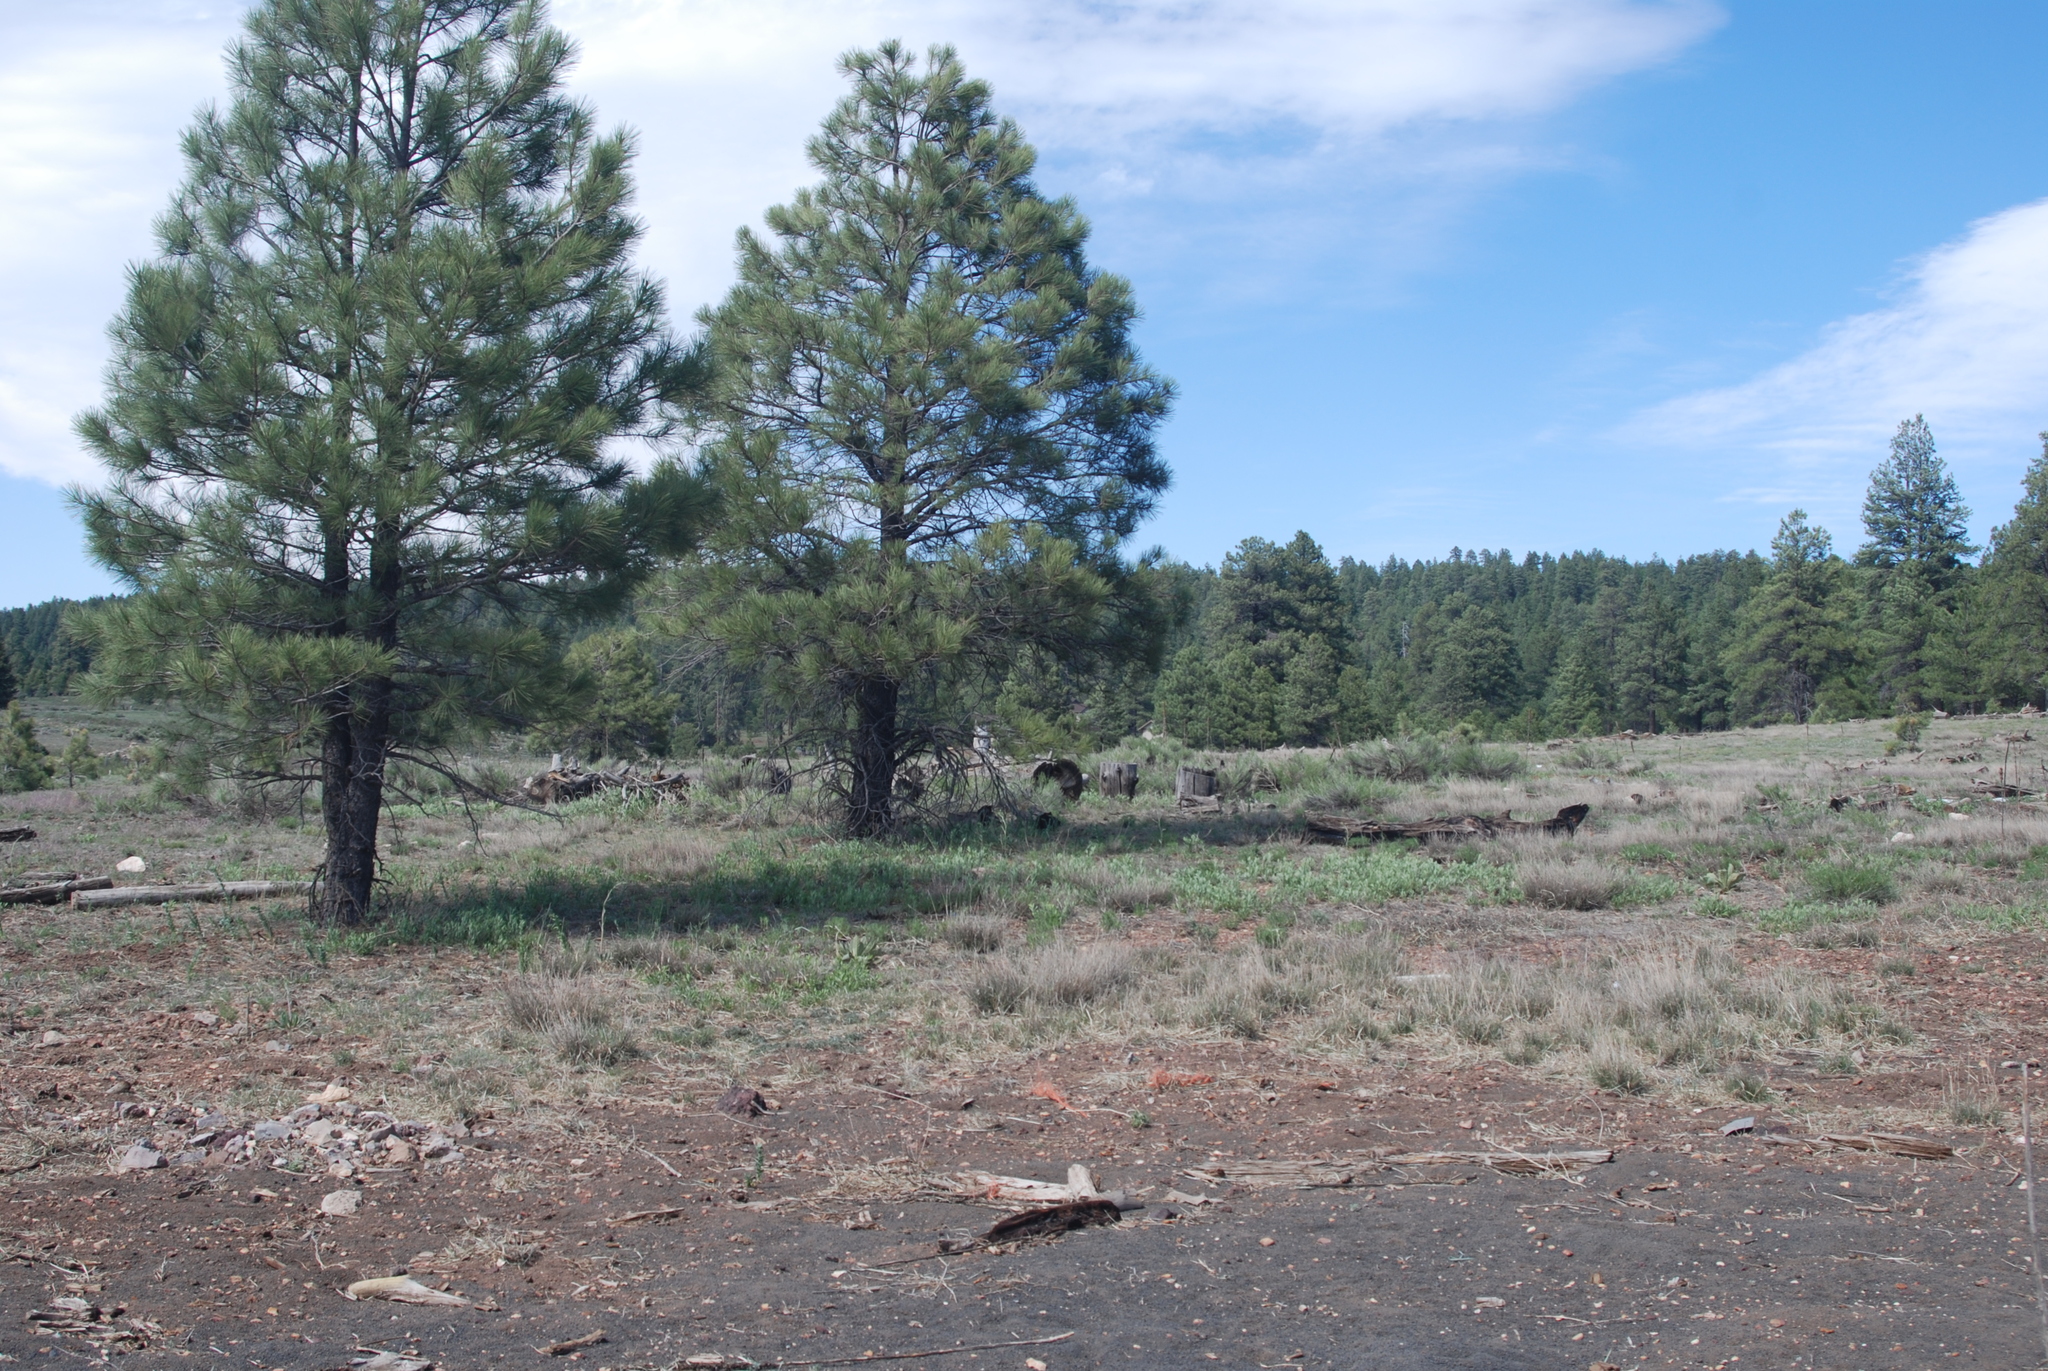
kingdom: Plantae
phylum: Tracheophyta
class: Pinopsida
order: Pinales
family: Pinaceae
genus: Pinus
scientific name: Pinus ponderosa
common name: Western yellow-pine
